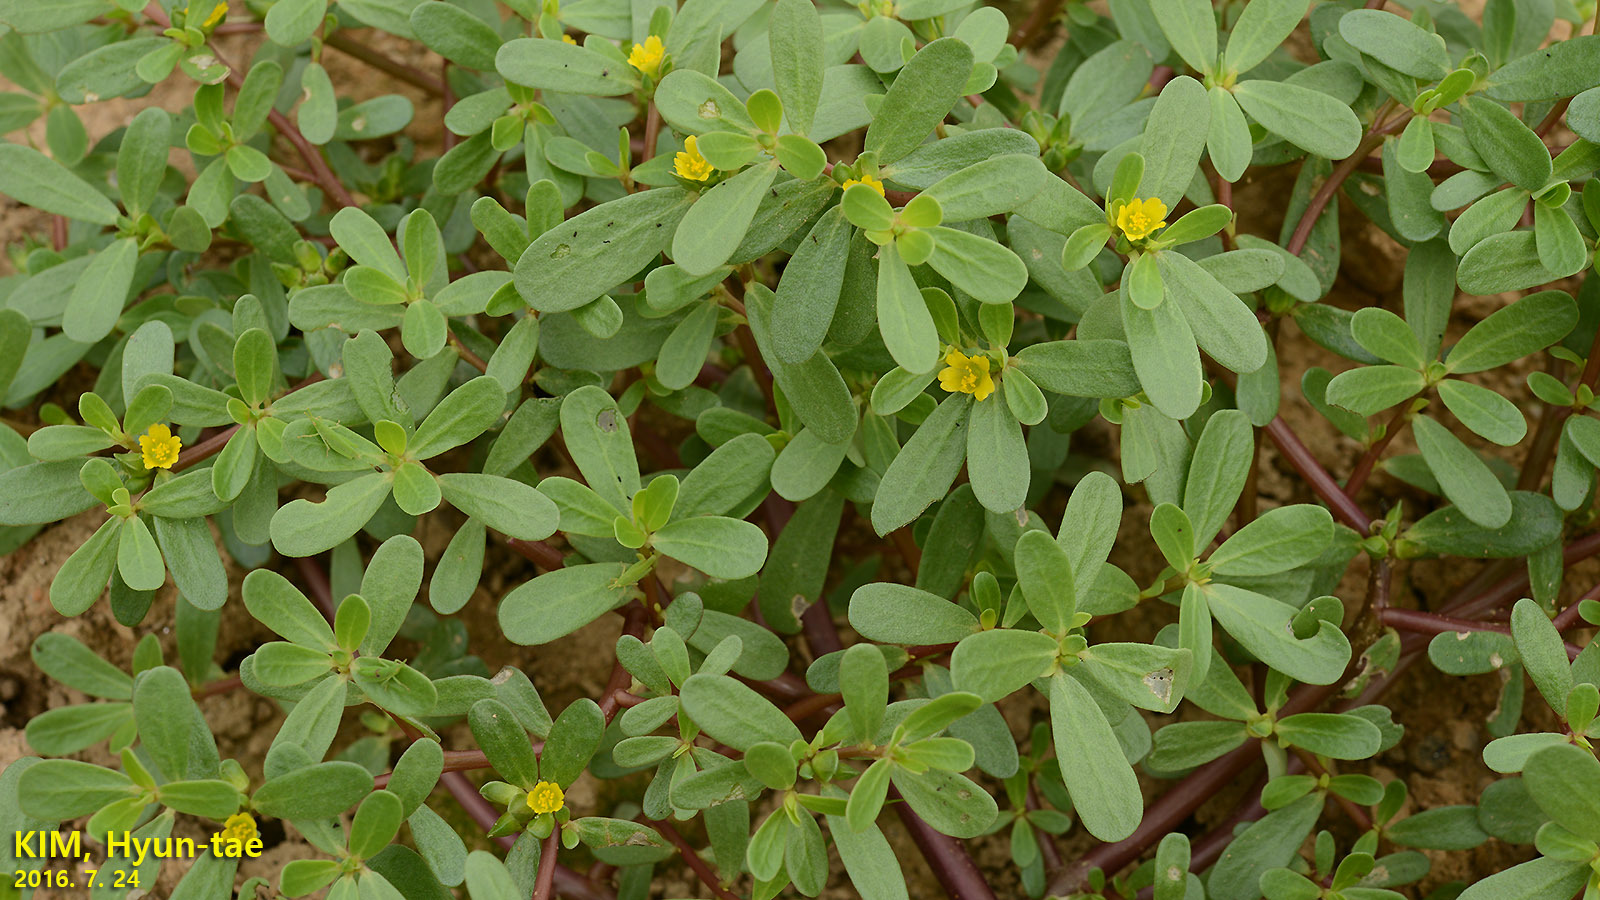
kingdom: Plantae
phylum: Tracheophyta
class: Magnoliopsida
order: Caryophyllales
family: Portulacaceae
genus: Portulaca
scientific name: Portulaca oleracea
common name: Common purslane
